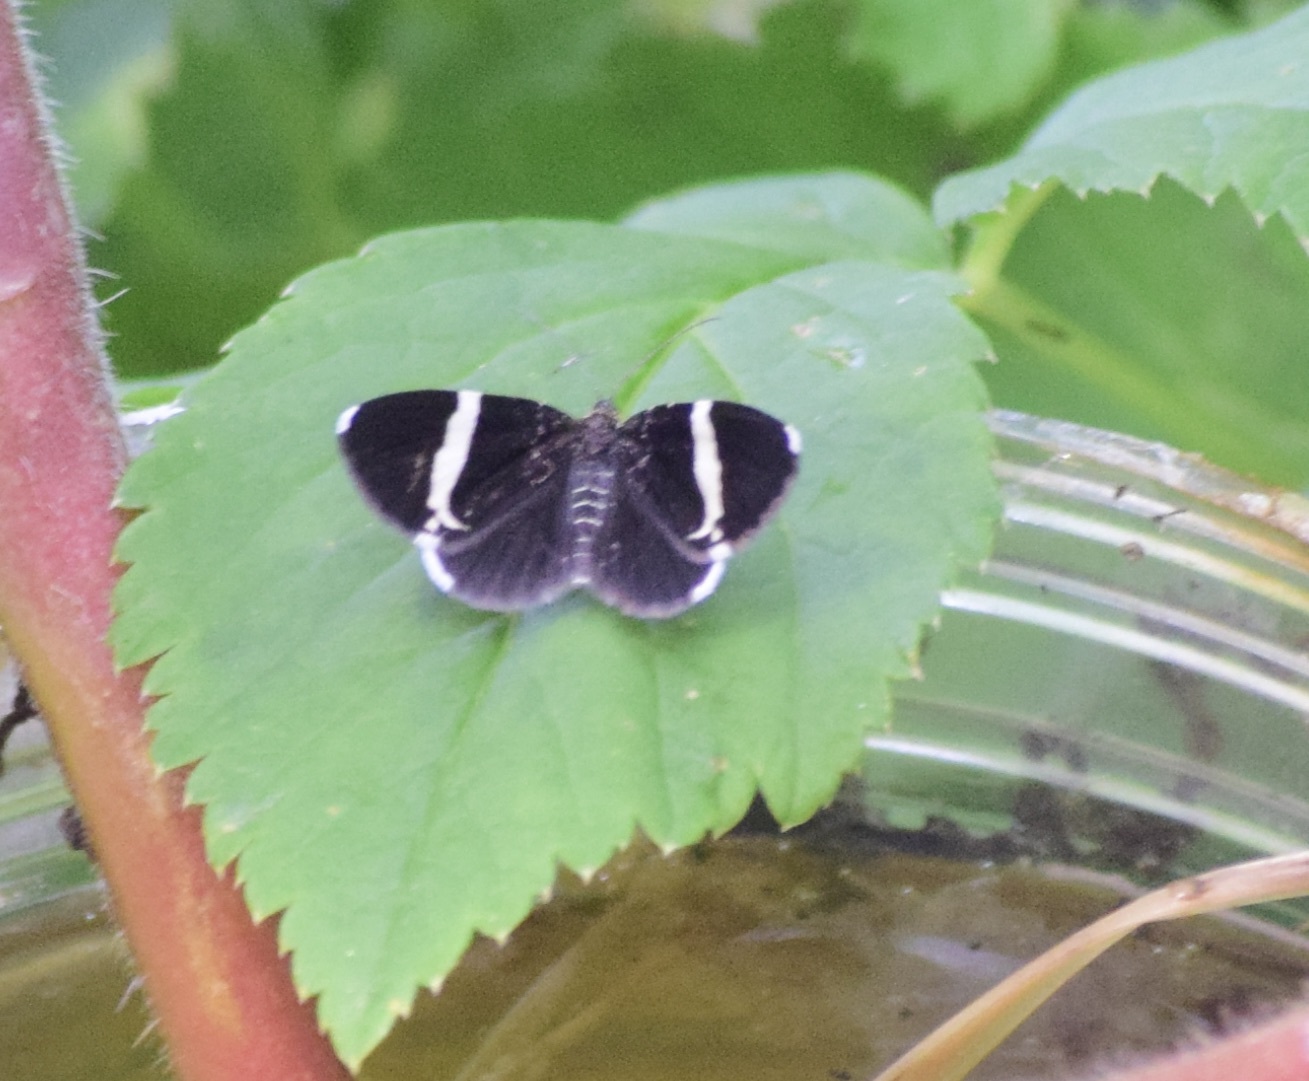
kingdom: Animalia
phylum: Arthropoda
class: Insecta
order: Lepidoptera
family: Geometridae
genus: Trichodezia
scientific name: Trichodezia albovittata
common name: White striped black
